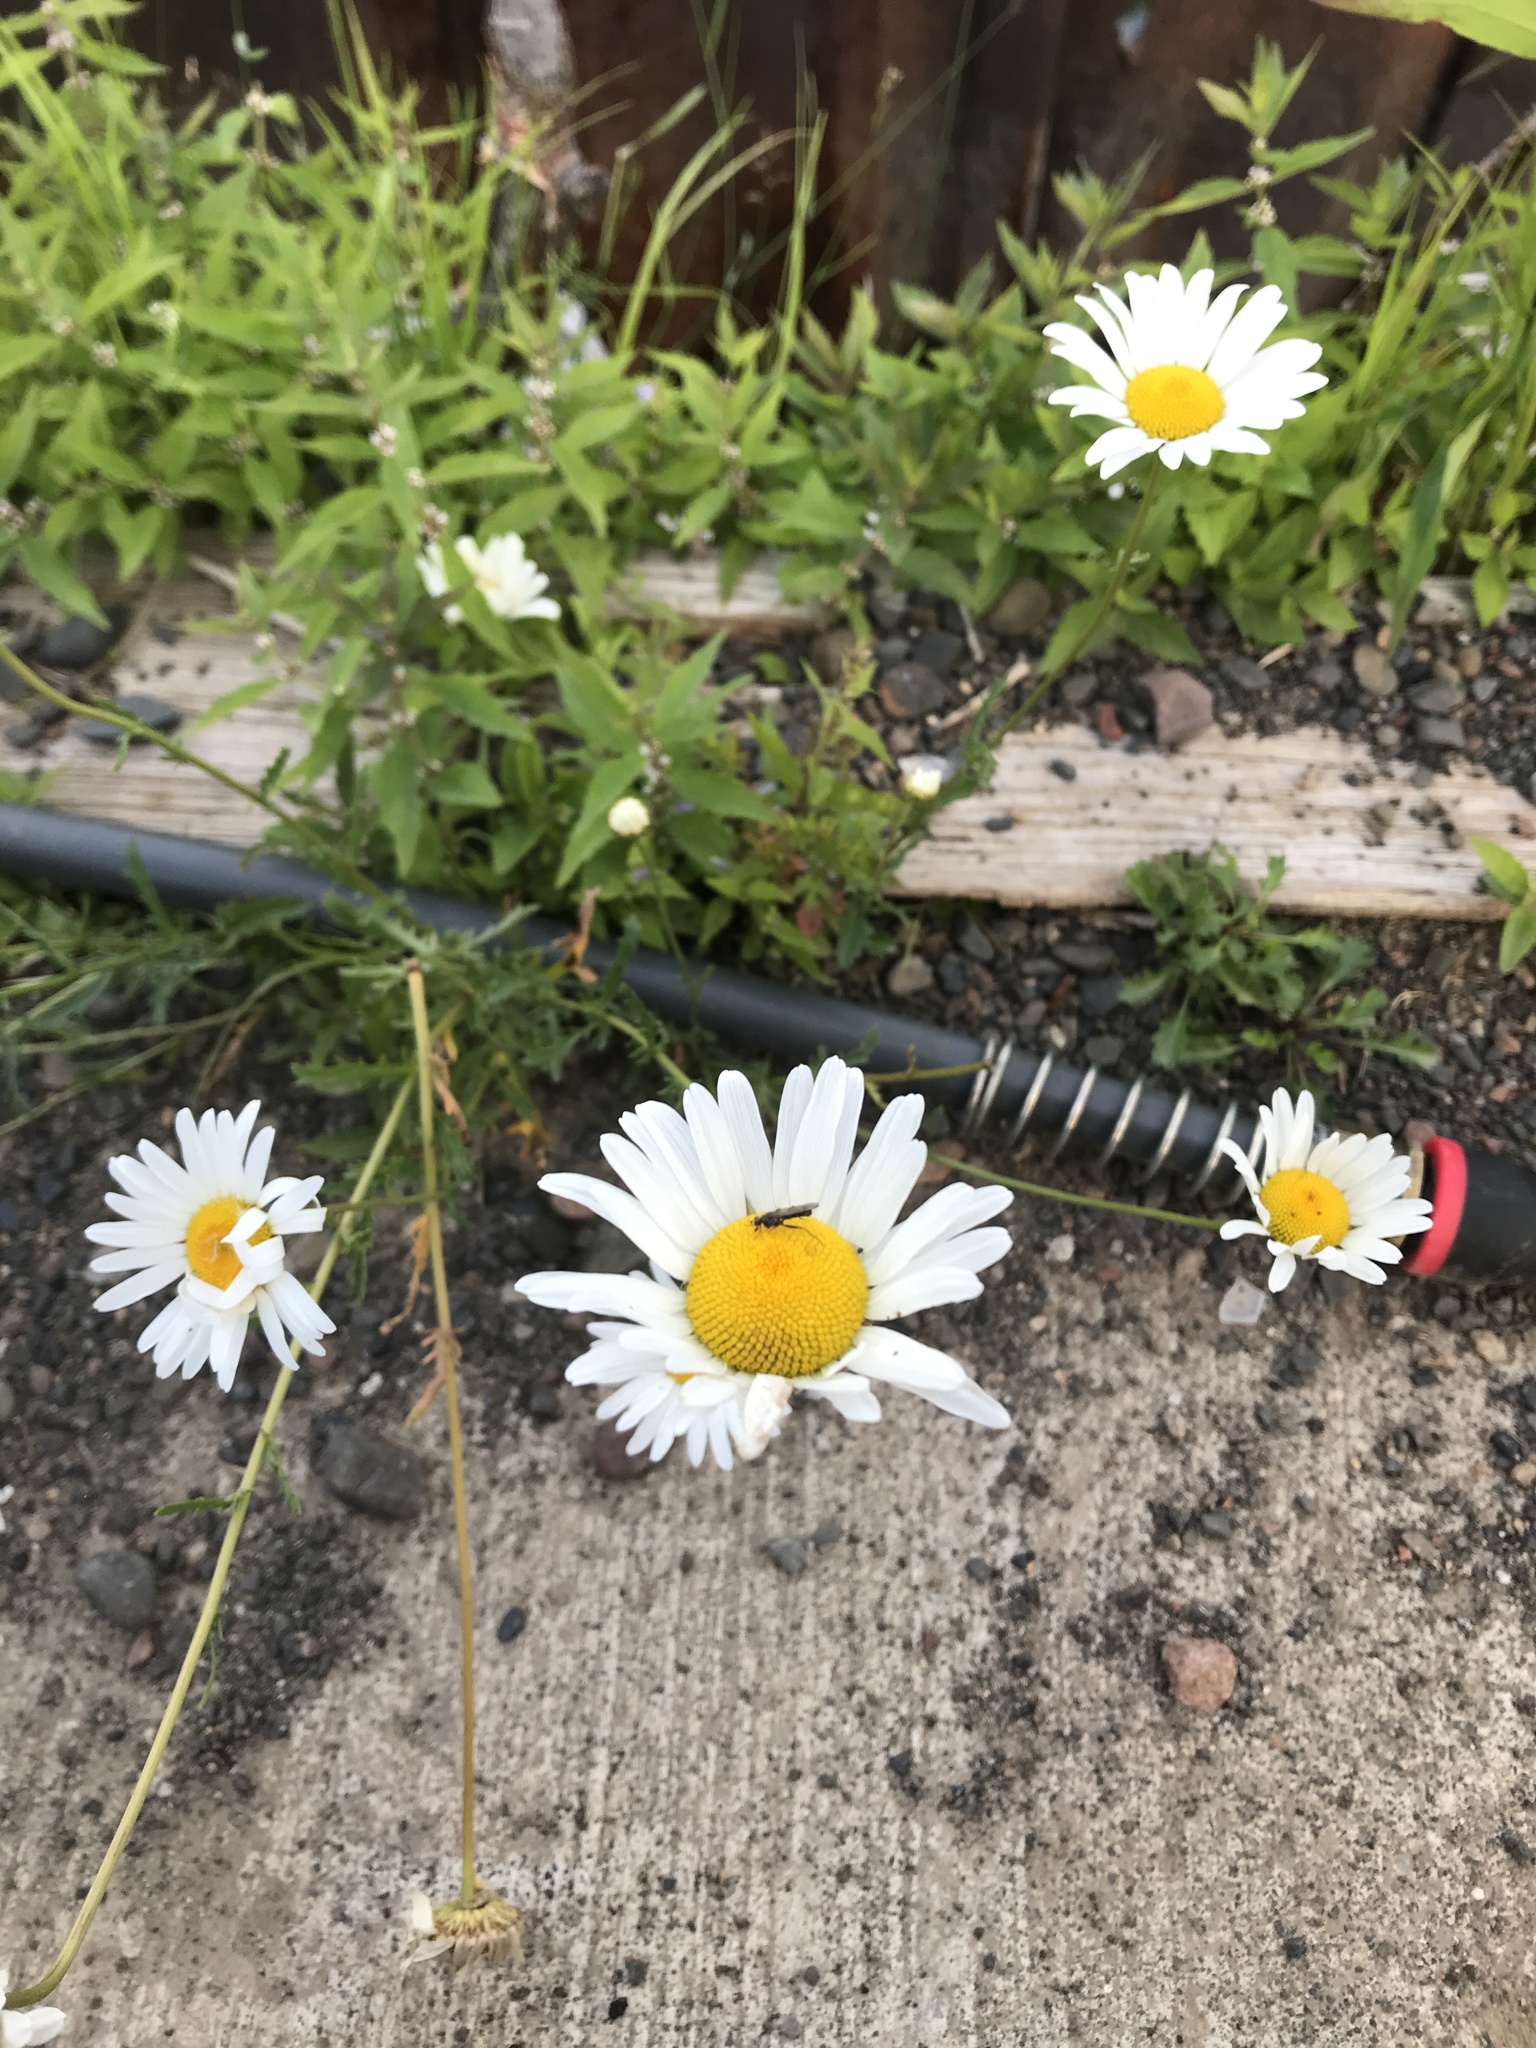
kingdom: Plantae
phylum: Tracheophyta
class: Magnoliopsida
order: Asterales
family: Asteraceae
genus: Leucanthemum
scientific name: Leucanthemum vulgare
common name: Oxeye daisy
